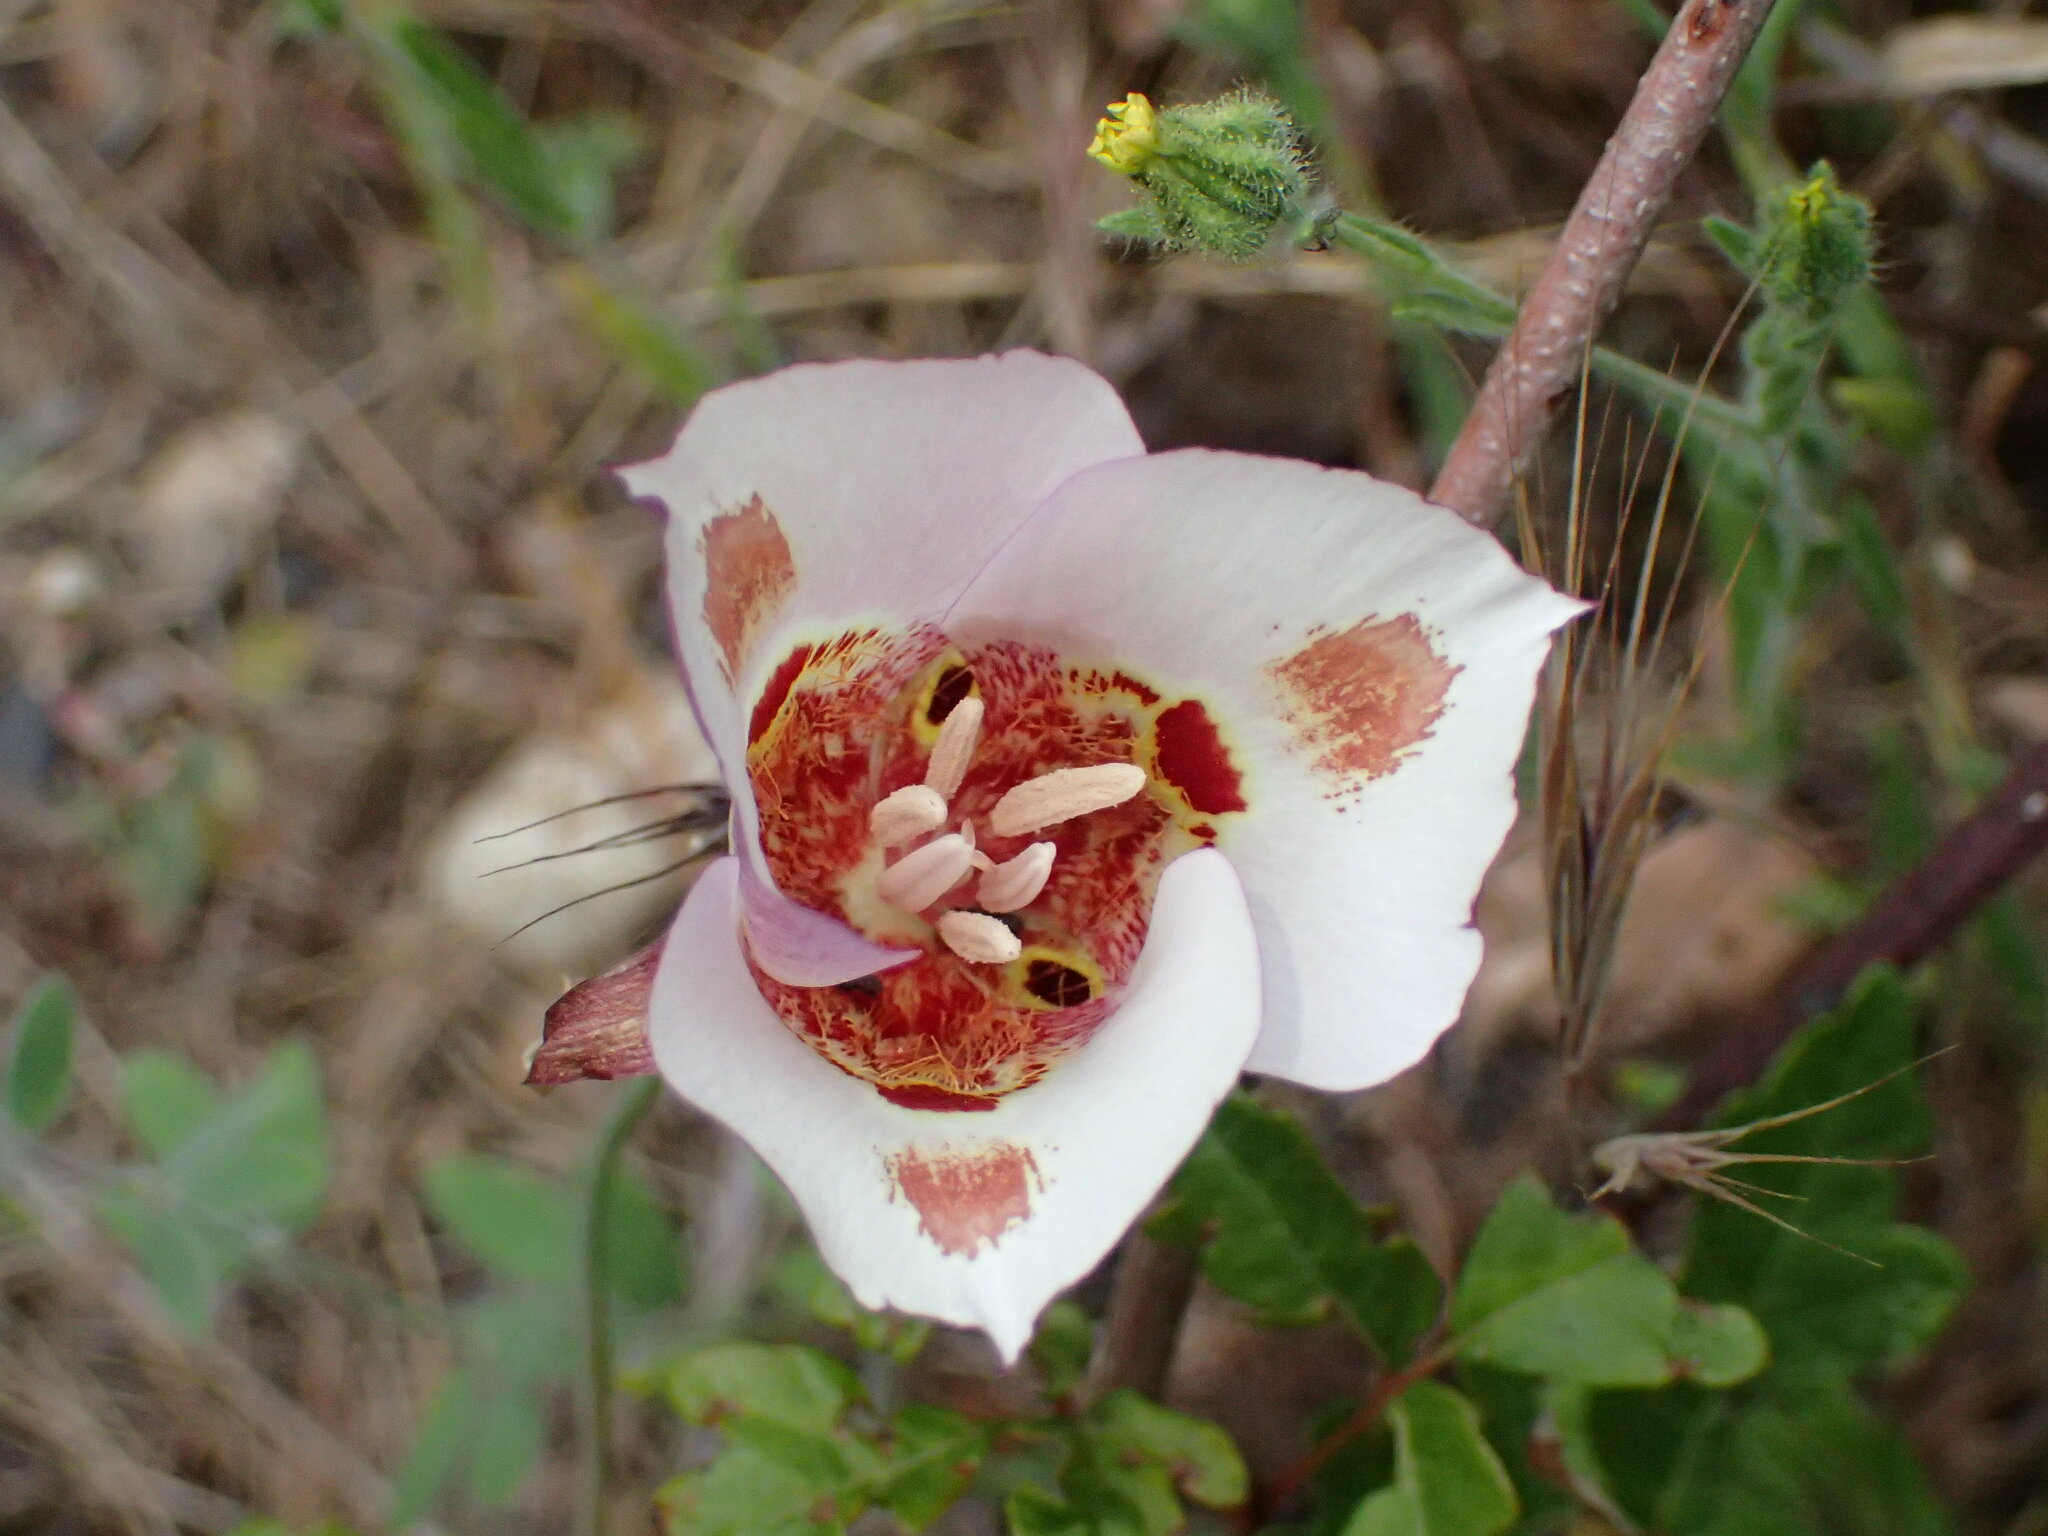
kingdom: Plantae
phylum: Tracheophyta
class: Liliopsida
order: Liliales
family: Liliaceae
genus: Calochortus
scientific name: Calochortus venustus
